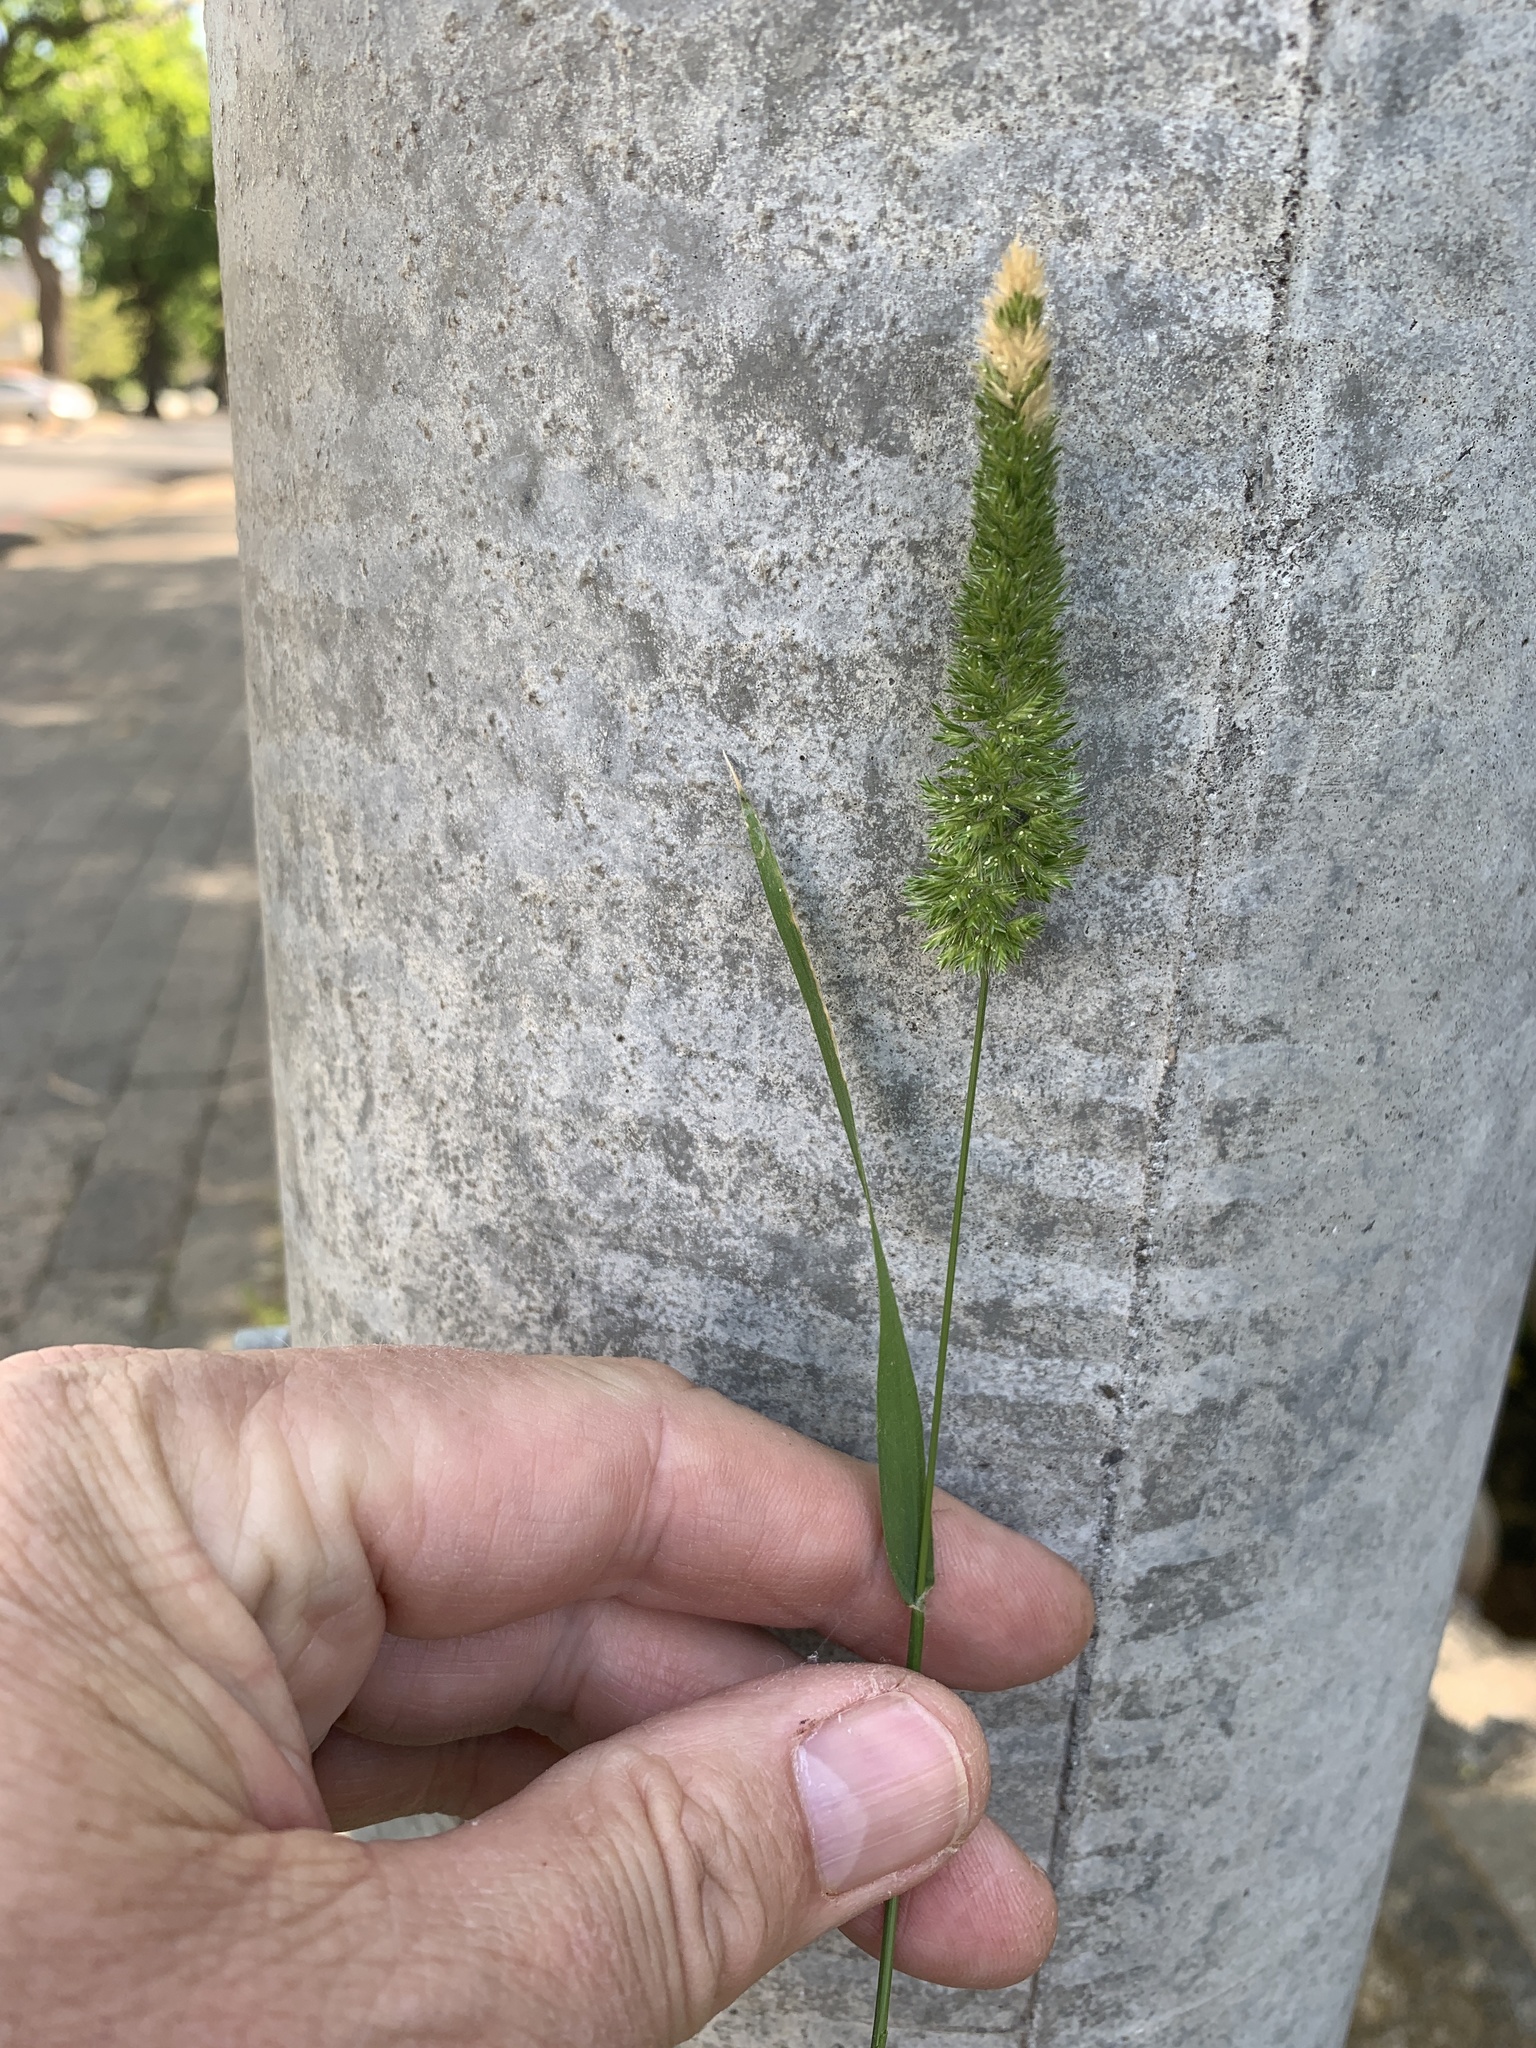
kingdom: Plantae
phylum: Tracheophyta
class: Liliopsida
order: Poales
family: Poaceae
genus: Rostraria
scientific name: Rostraria cristata
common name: Mediterranean hair-grass
